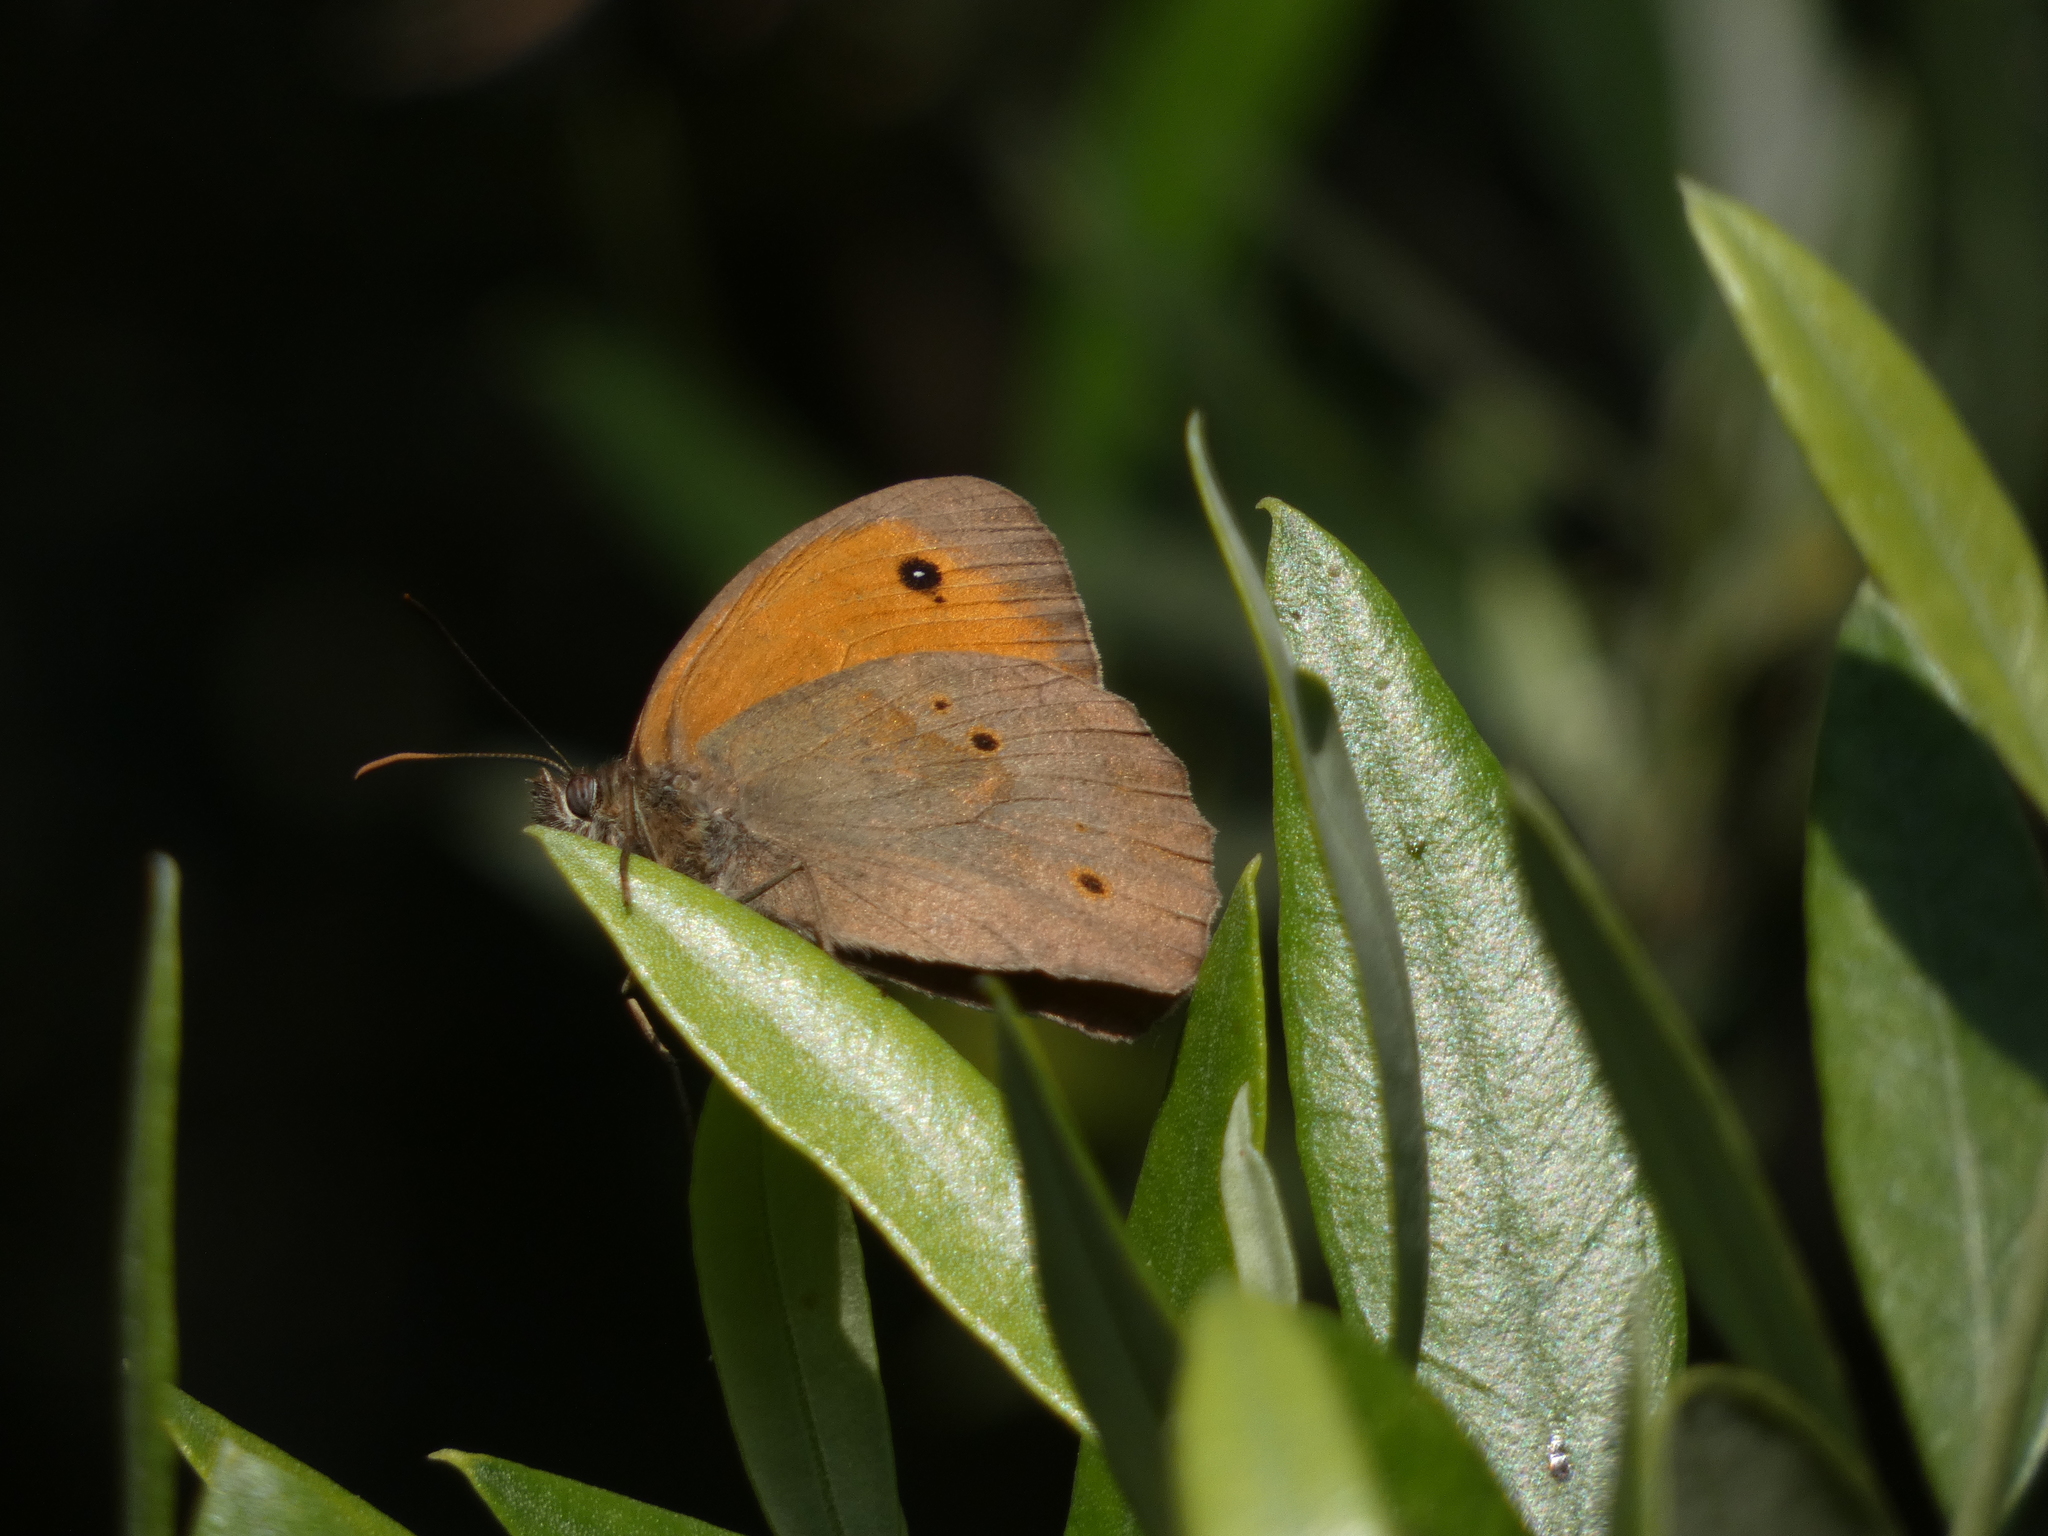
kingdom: Animalia
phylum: Arthropoda
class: Insecta
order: Lepidoptera
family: Nymphalidae
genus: Maniola
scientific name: Maniola jurtina
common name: Meadow brown
